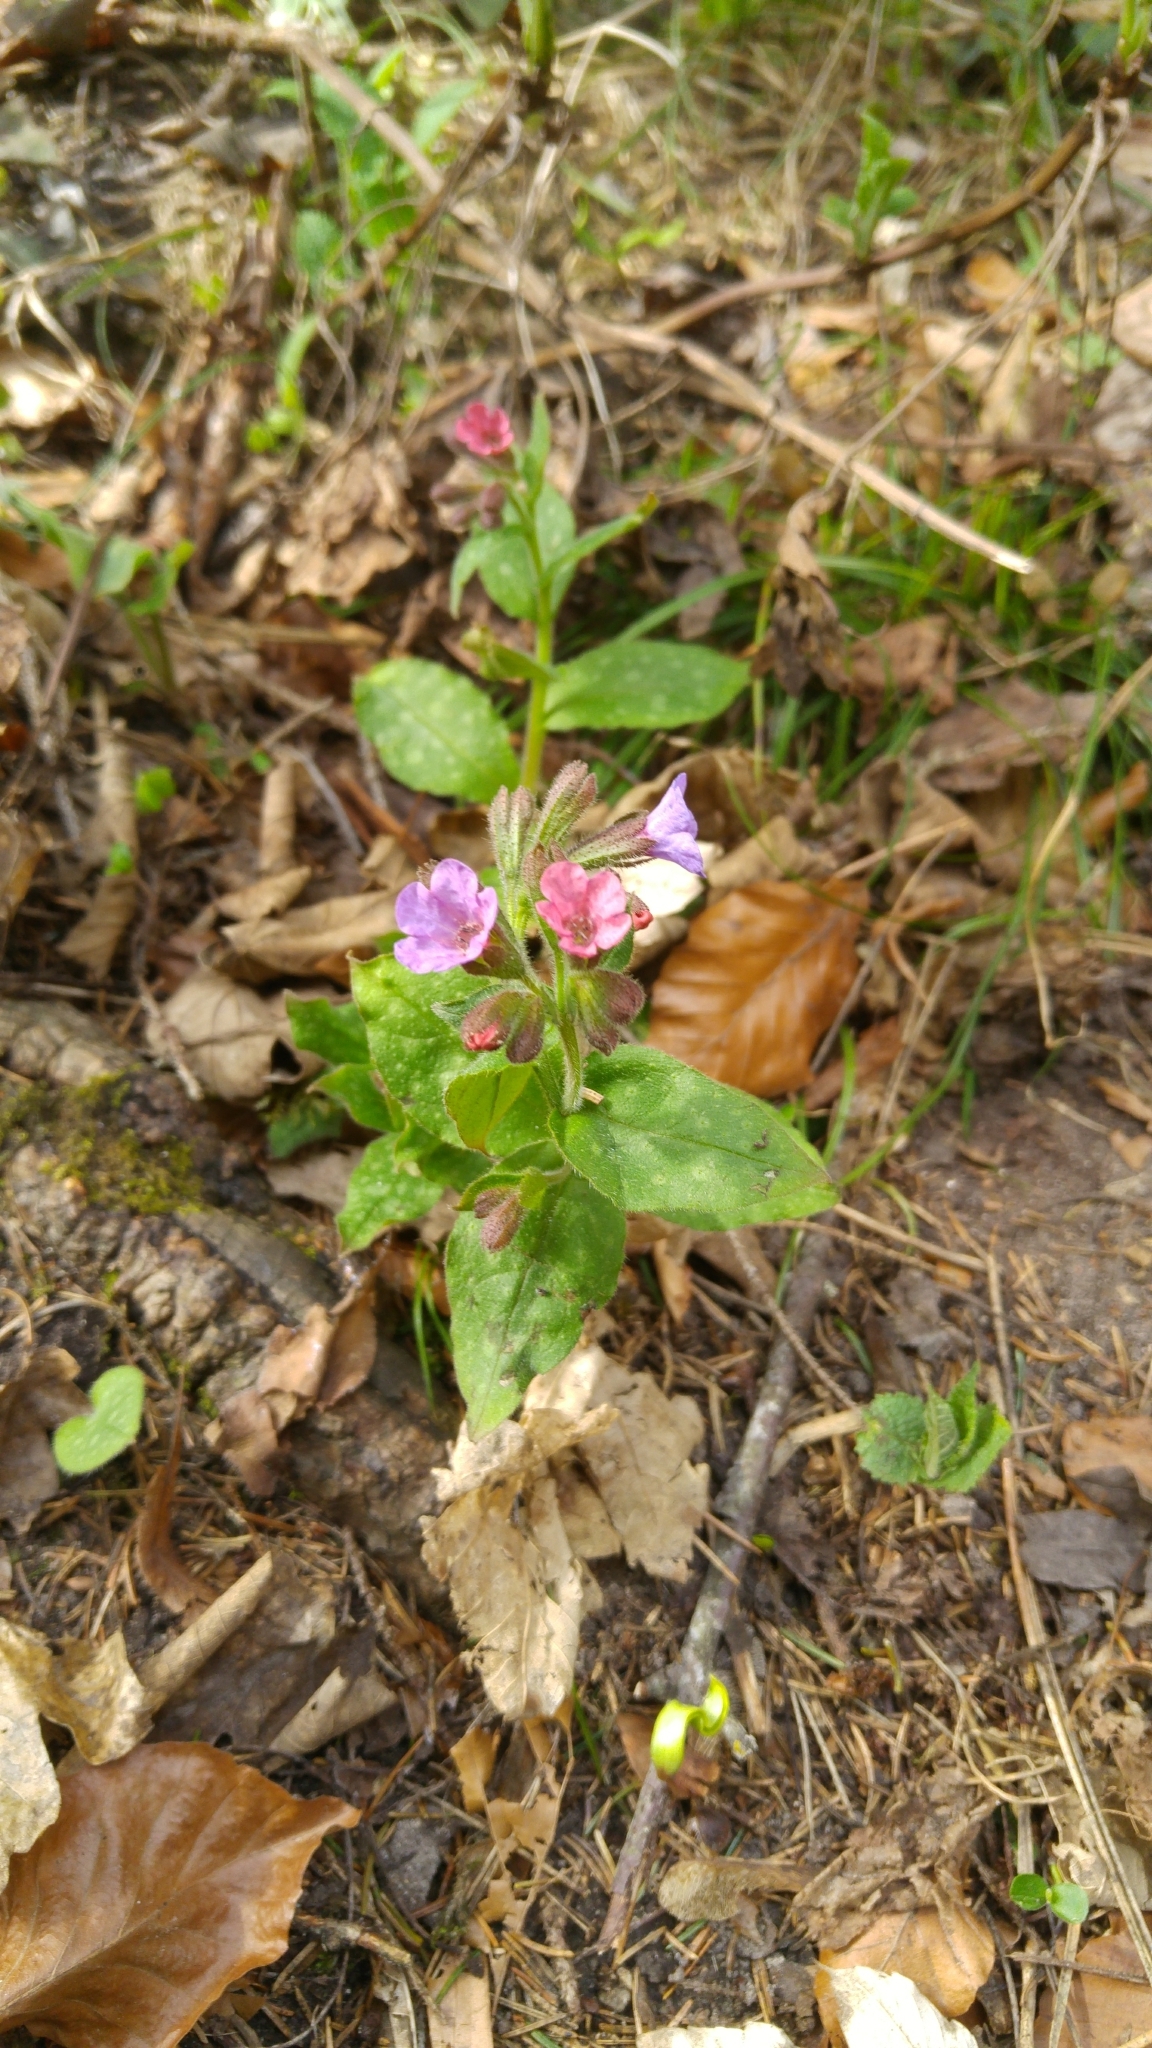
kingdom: Plantae
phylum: Tracheophyta
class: Magnoliopsida
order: Boraginales
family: Boraginaceae
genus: Pulmonaria
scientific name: Pulmonaria officinalis
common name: Lungwort
